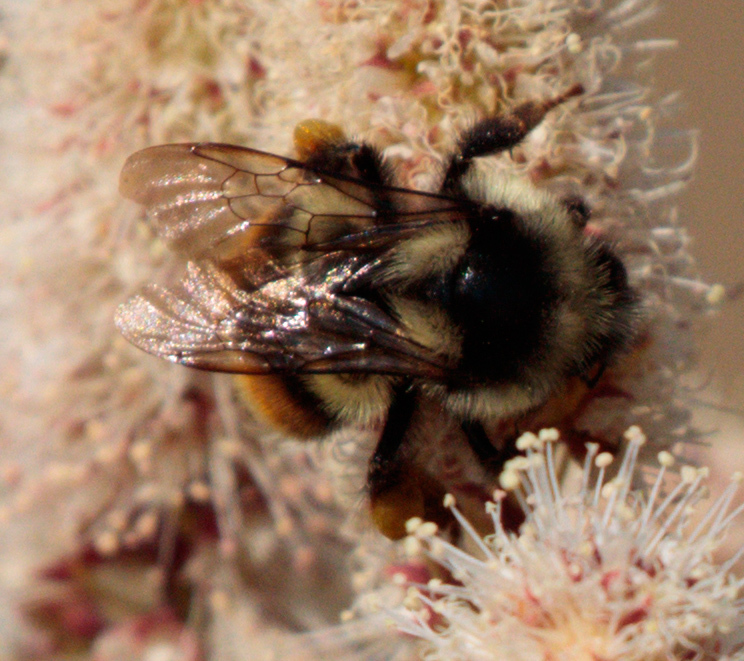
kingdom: Animalia
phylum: Arthropoda
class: Insecta
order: Hymenoptera
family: Apidae
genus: Bombus
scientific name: Bombus
